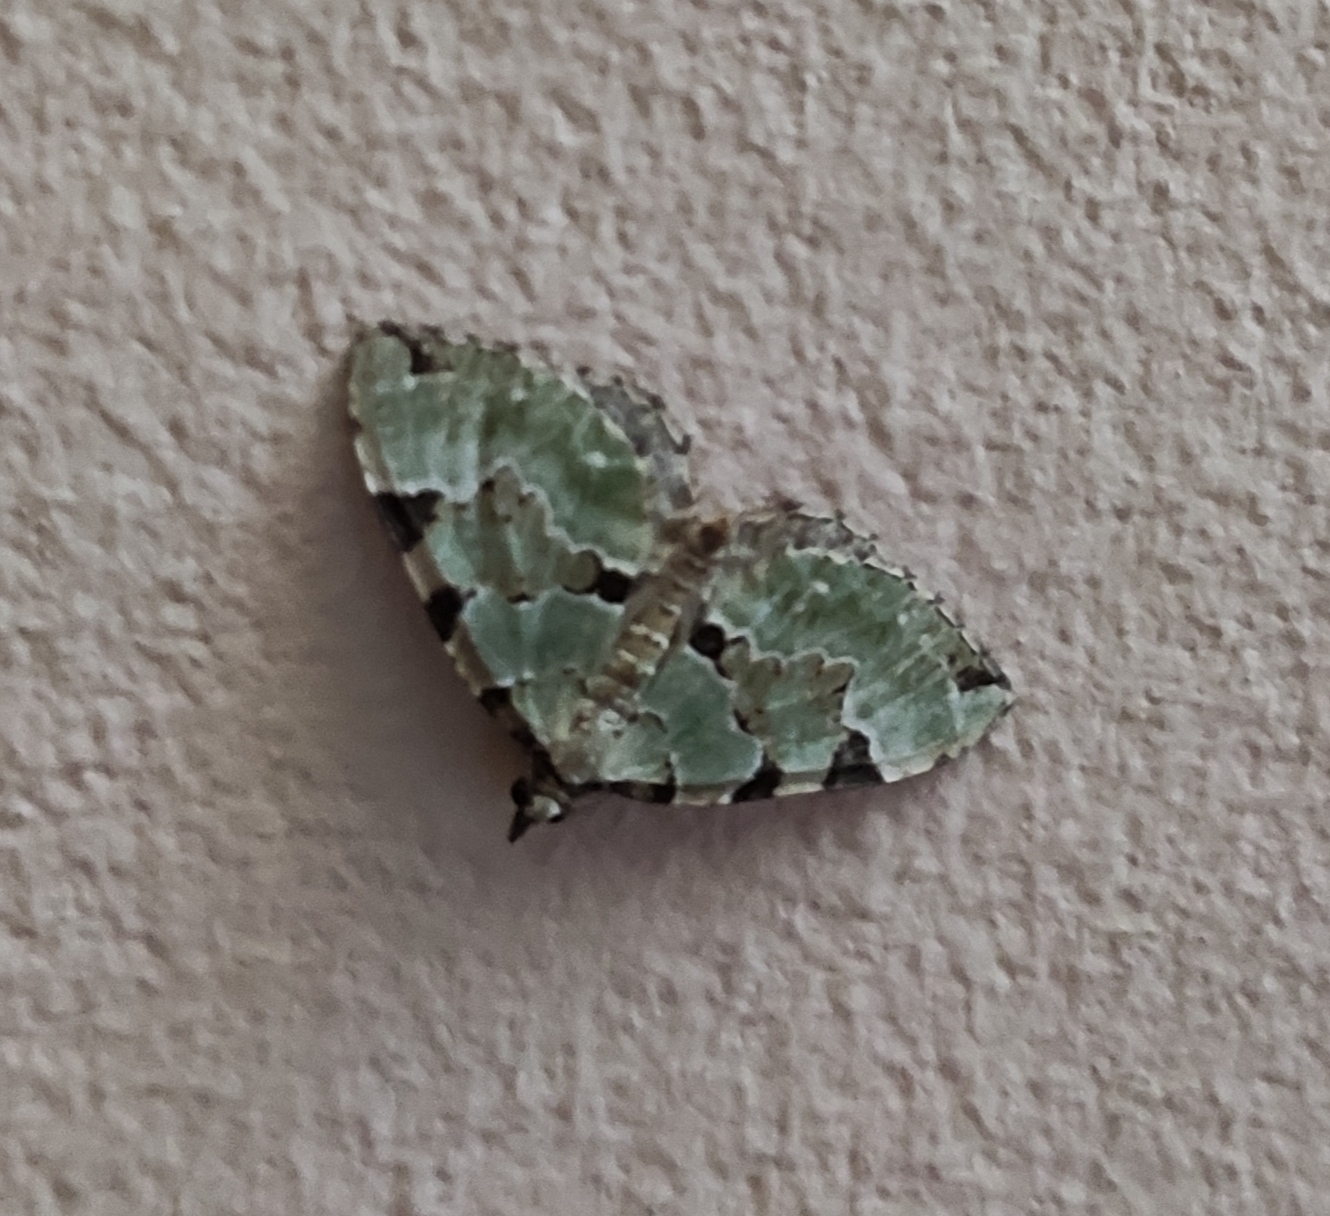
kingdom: Animalia
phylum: Arthropoda
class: Insecta
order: Lepidoptera
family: Geometridae
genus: Colostygia
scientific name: Colostygia pectinataria
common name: Green carpet
